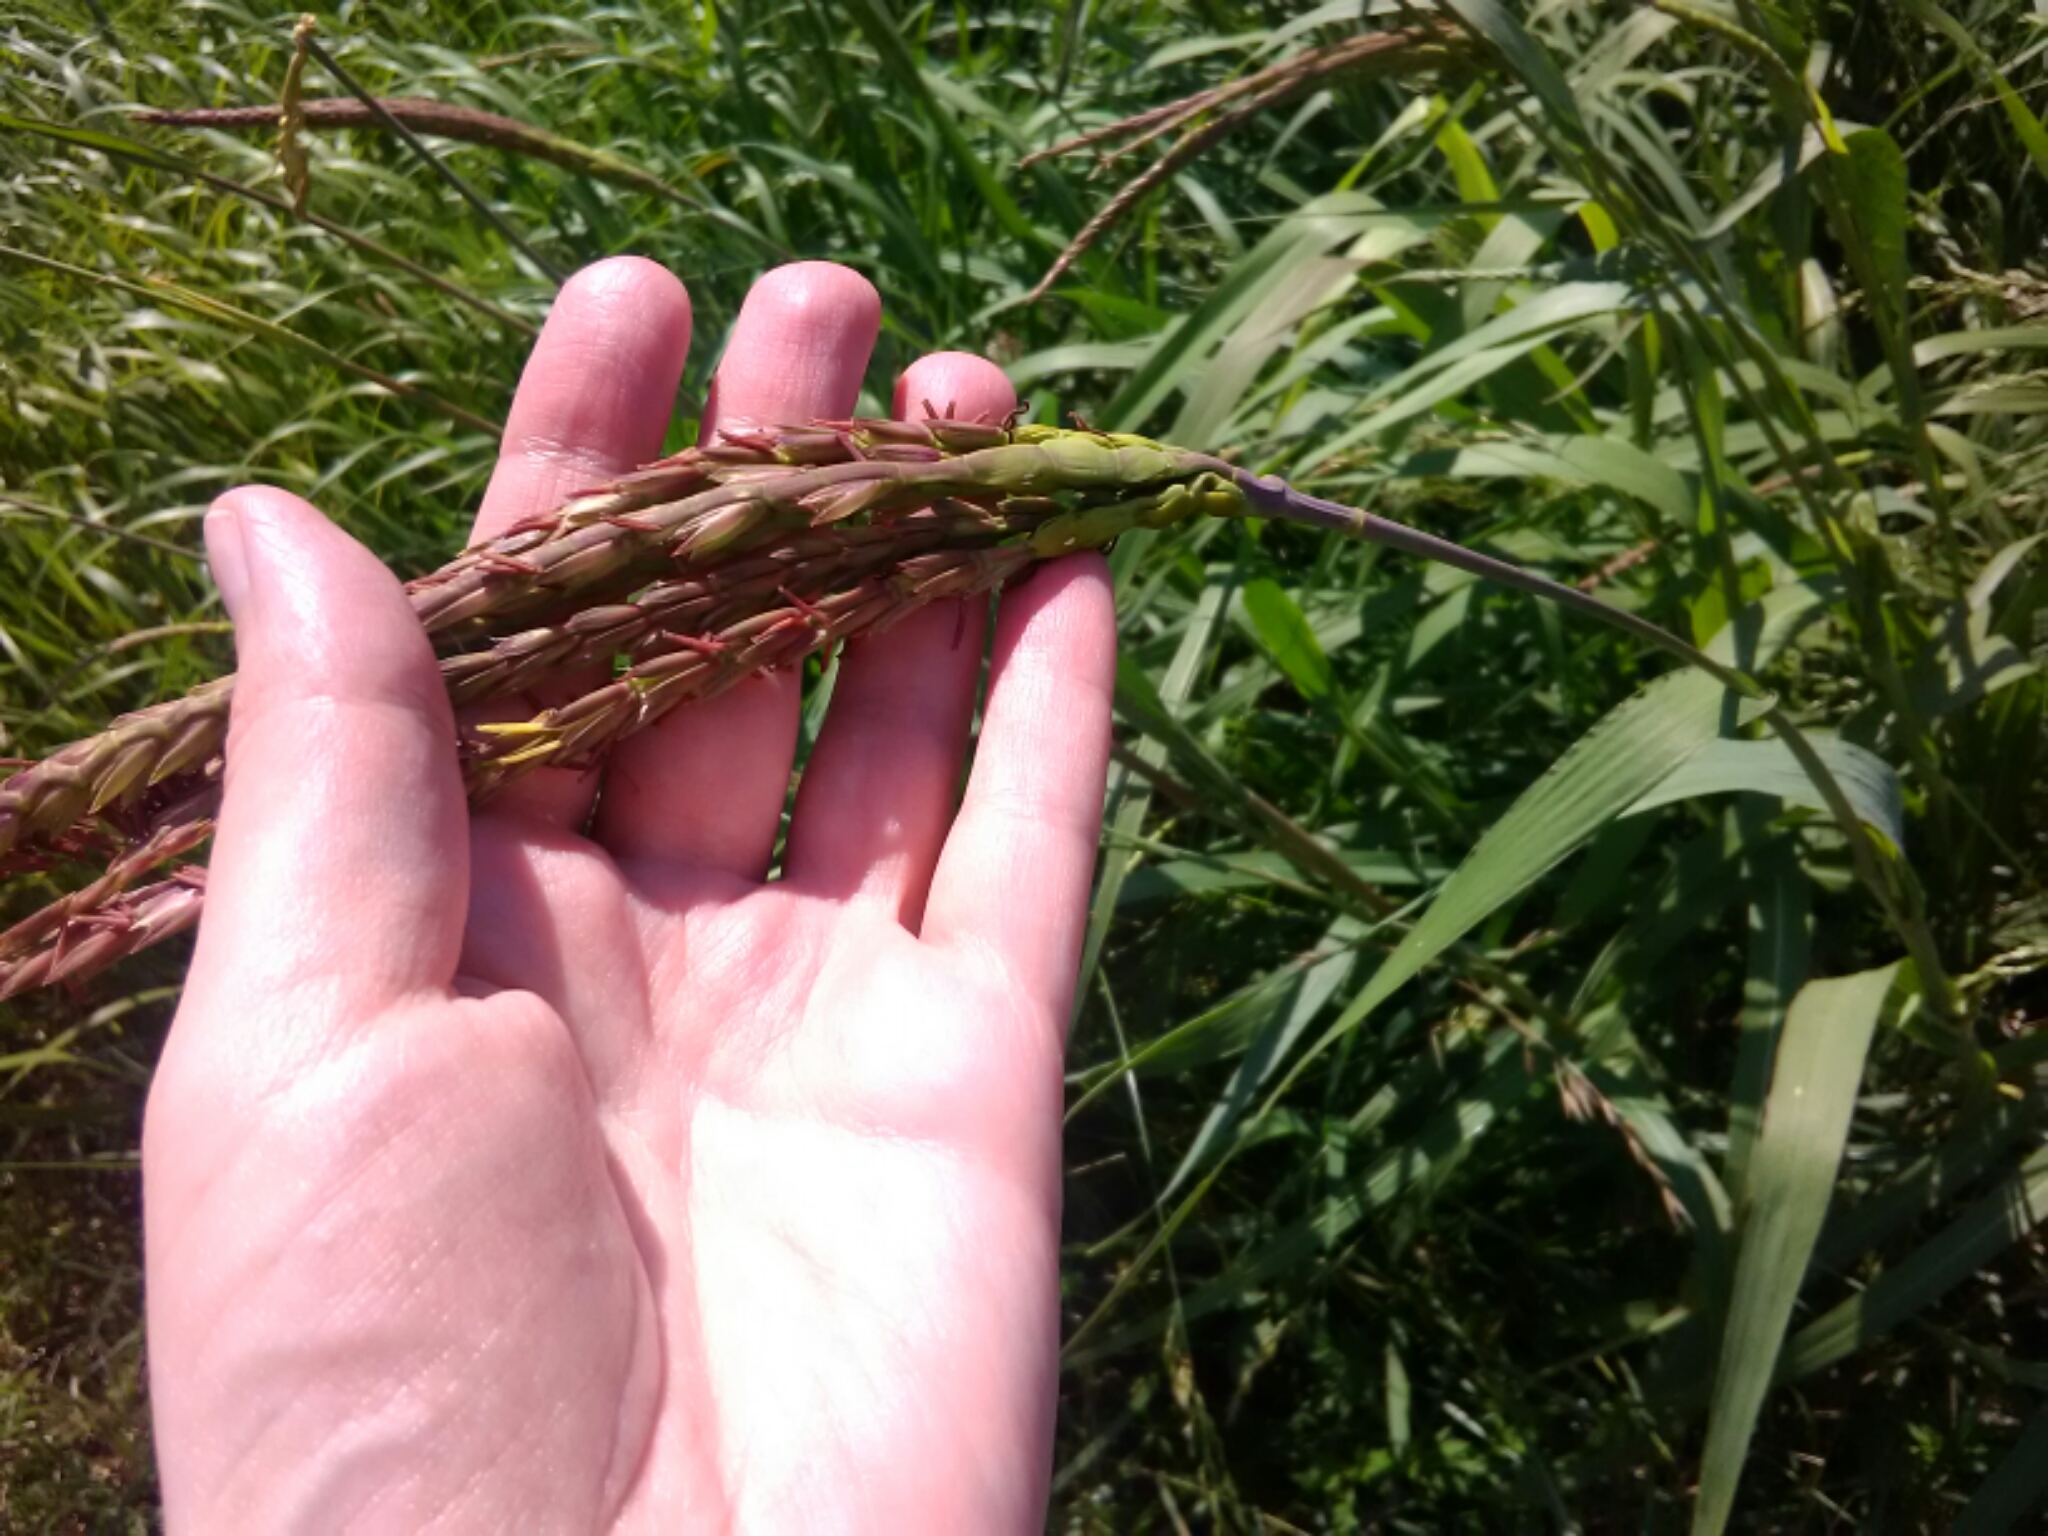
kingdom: Plantae
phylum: Tracheophyta
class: Liliopsida
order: Poales
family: Poaceae
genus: Tripsacum
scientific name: Tripsacum dactyloides
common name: Buffalo-grass
